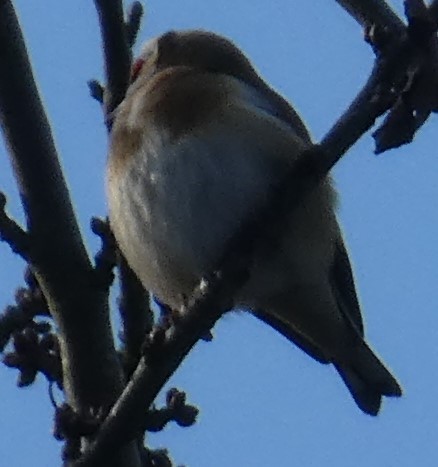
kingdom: Animalia
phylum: Chordata
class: Aves
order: Passeriformes
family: Fringillidae
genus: Carduelis
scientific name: Carduelis carduelis
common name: European goldfinch
